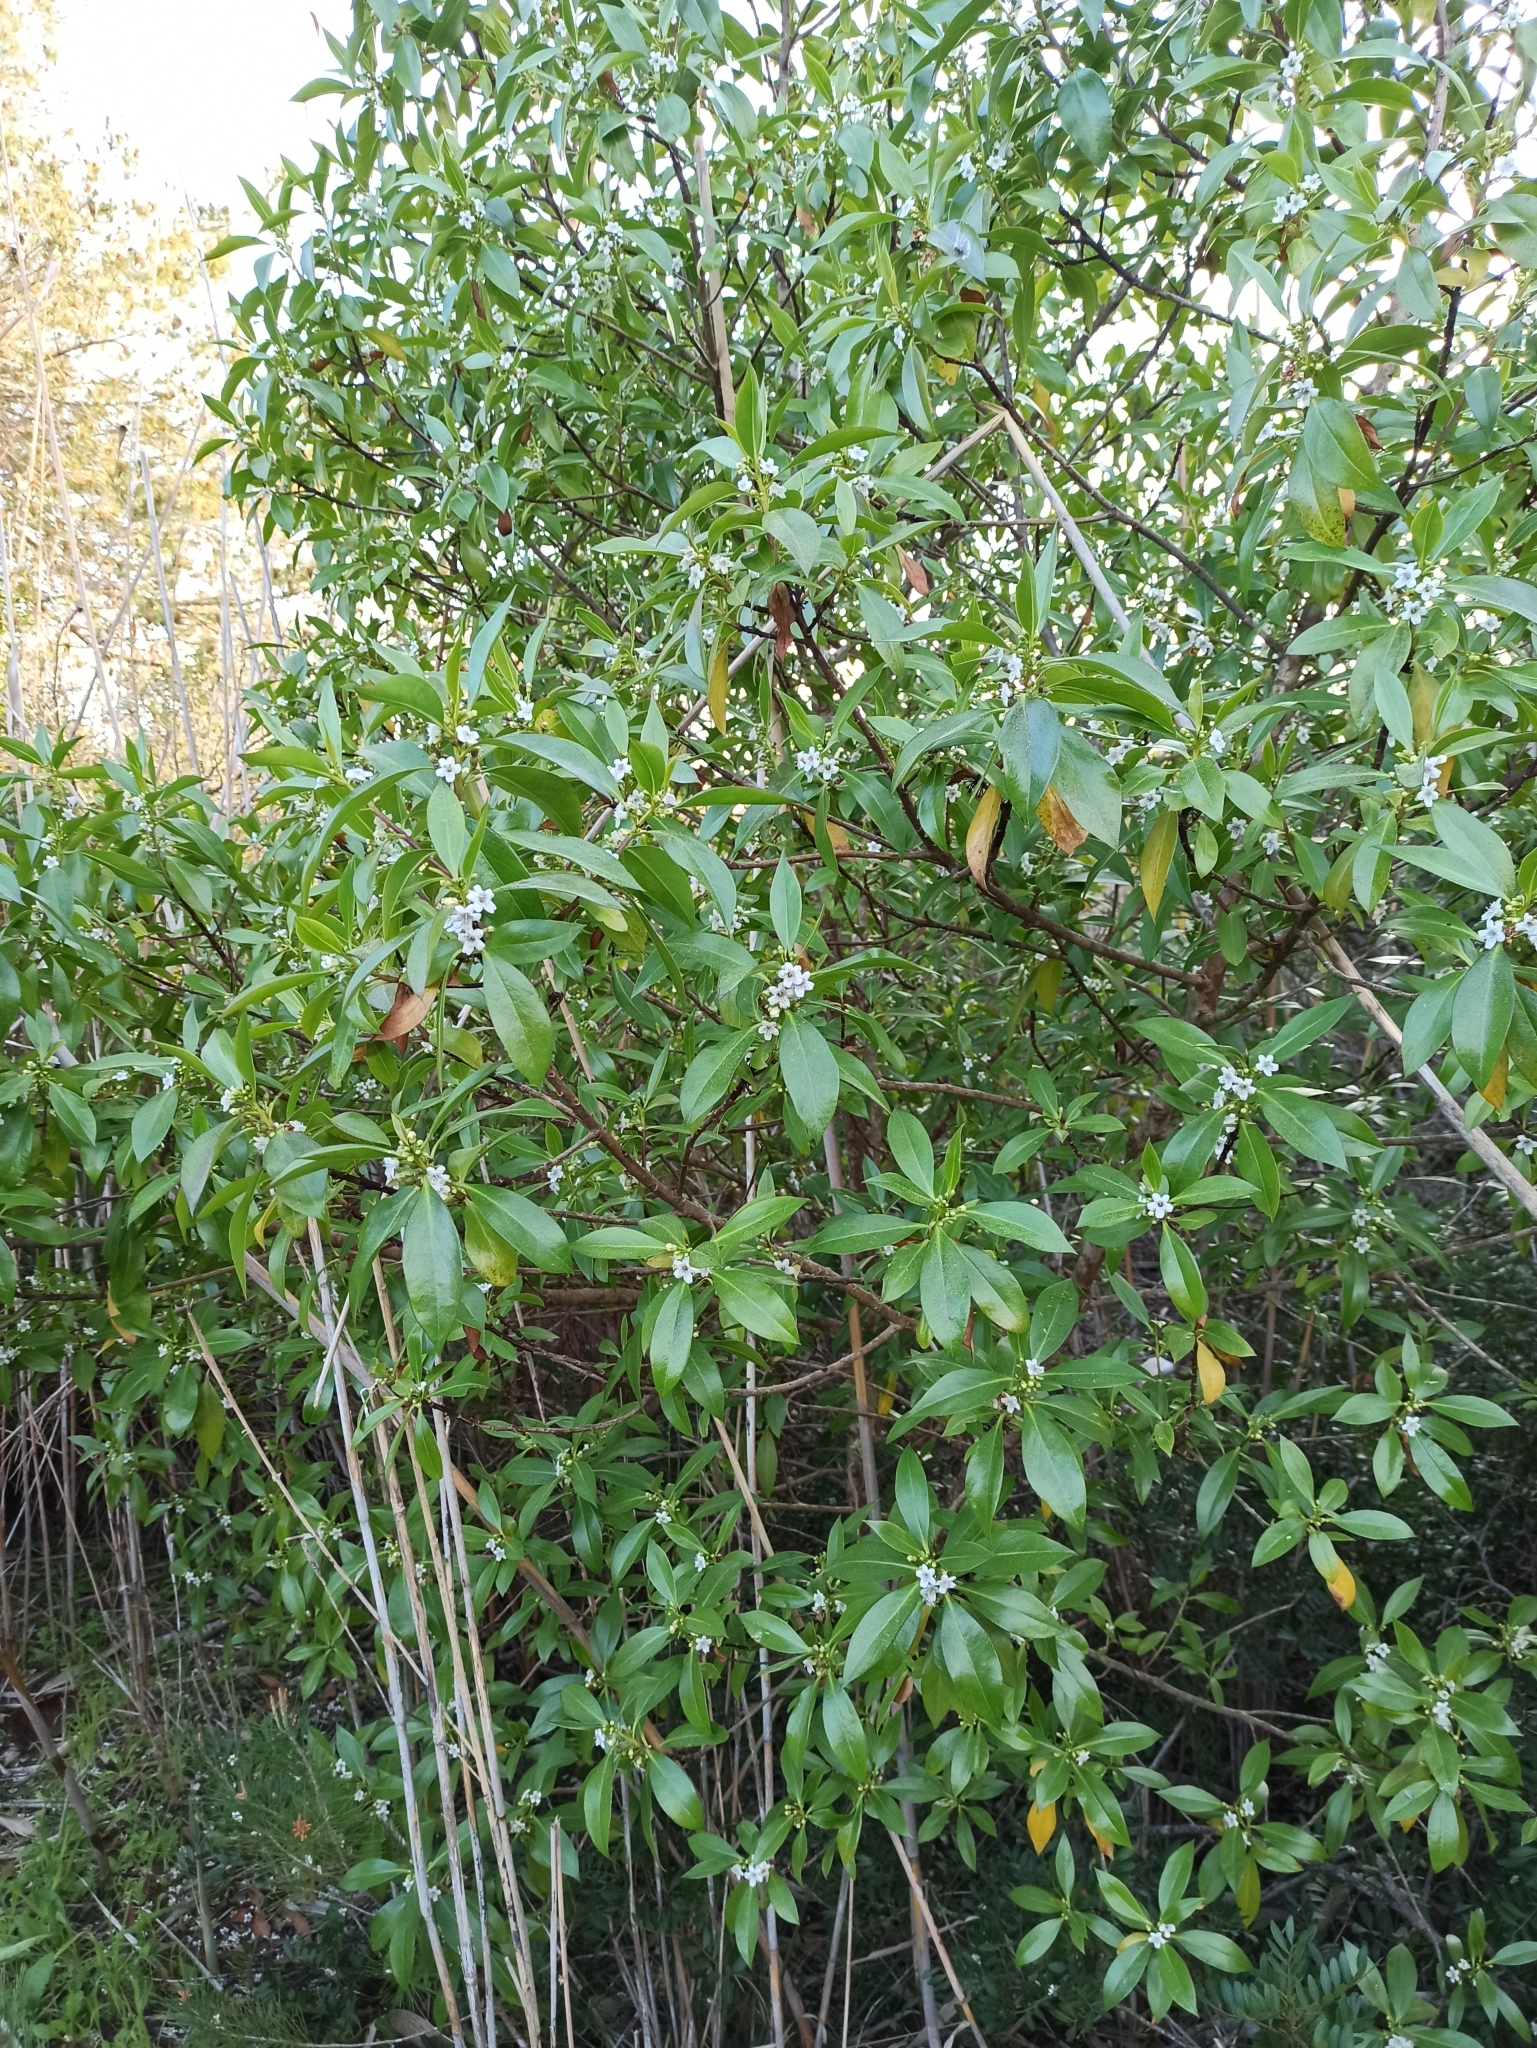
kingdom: Plantae
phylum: Tracheophyta
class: Magnoliopsida
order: Lamiales
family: Scrophulariaceae
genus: Myoporum
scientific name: Myoporum laetum
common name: Ngaio tree
